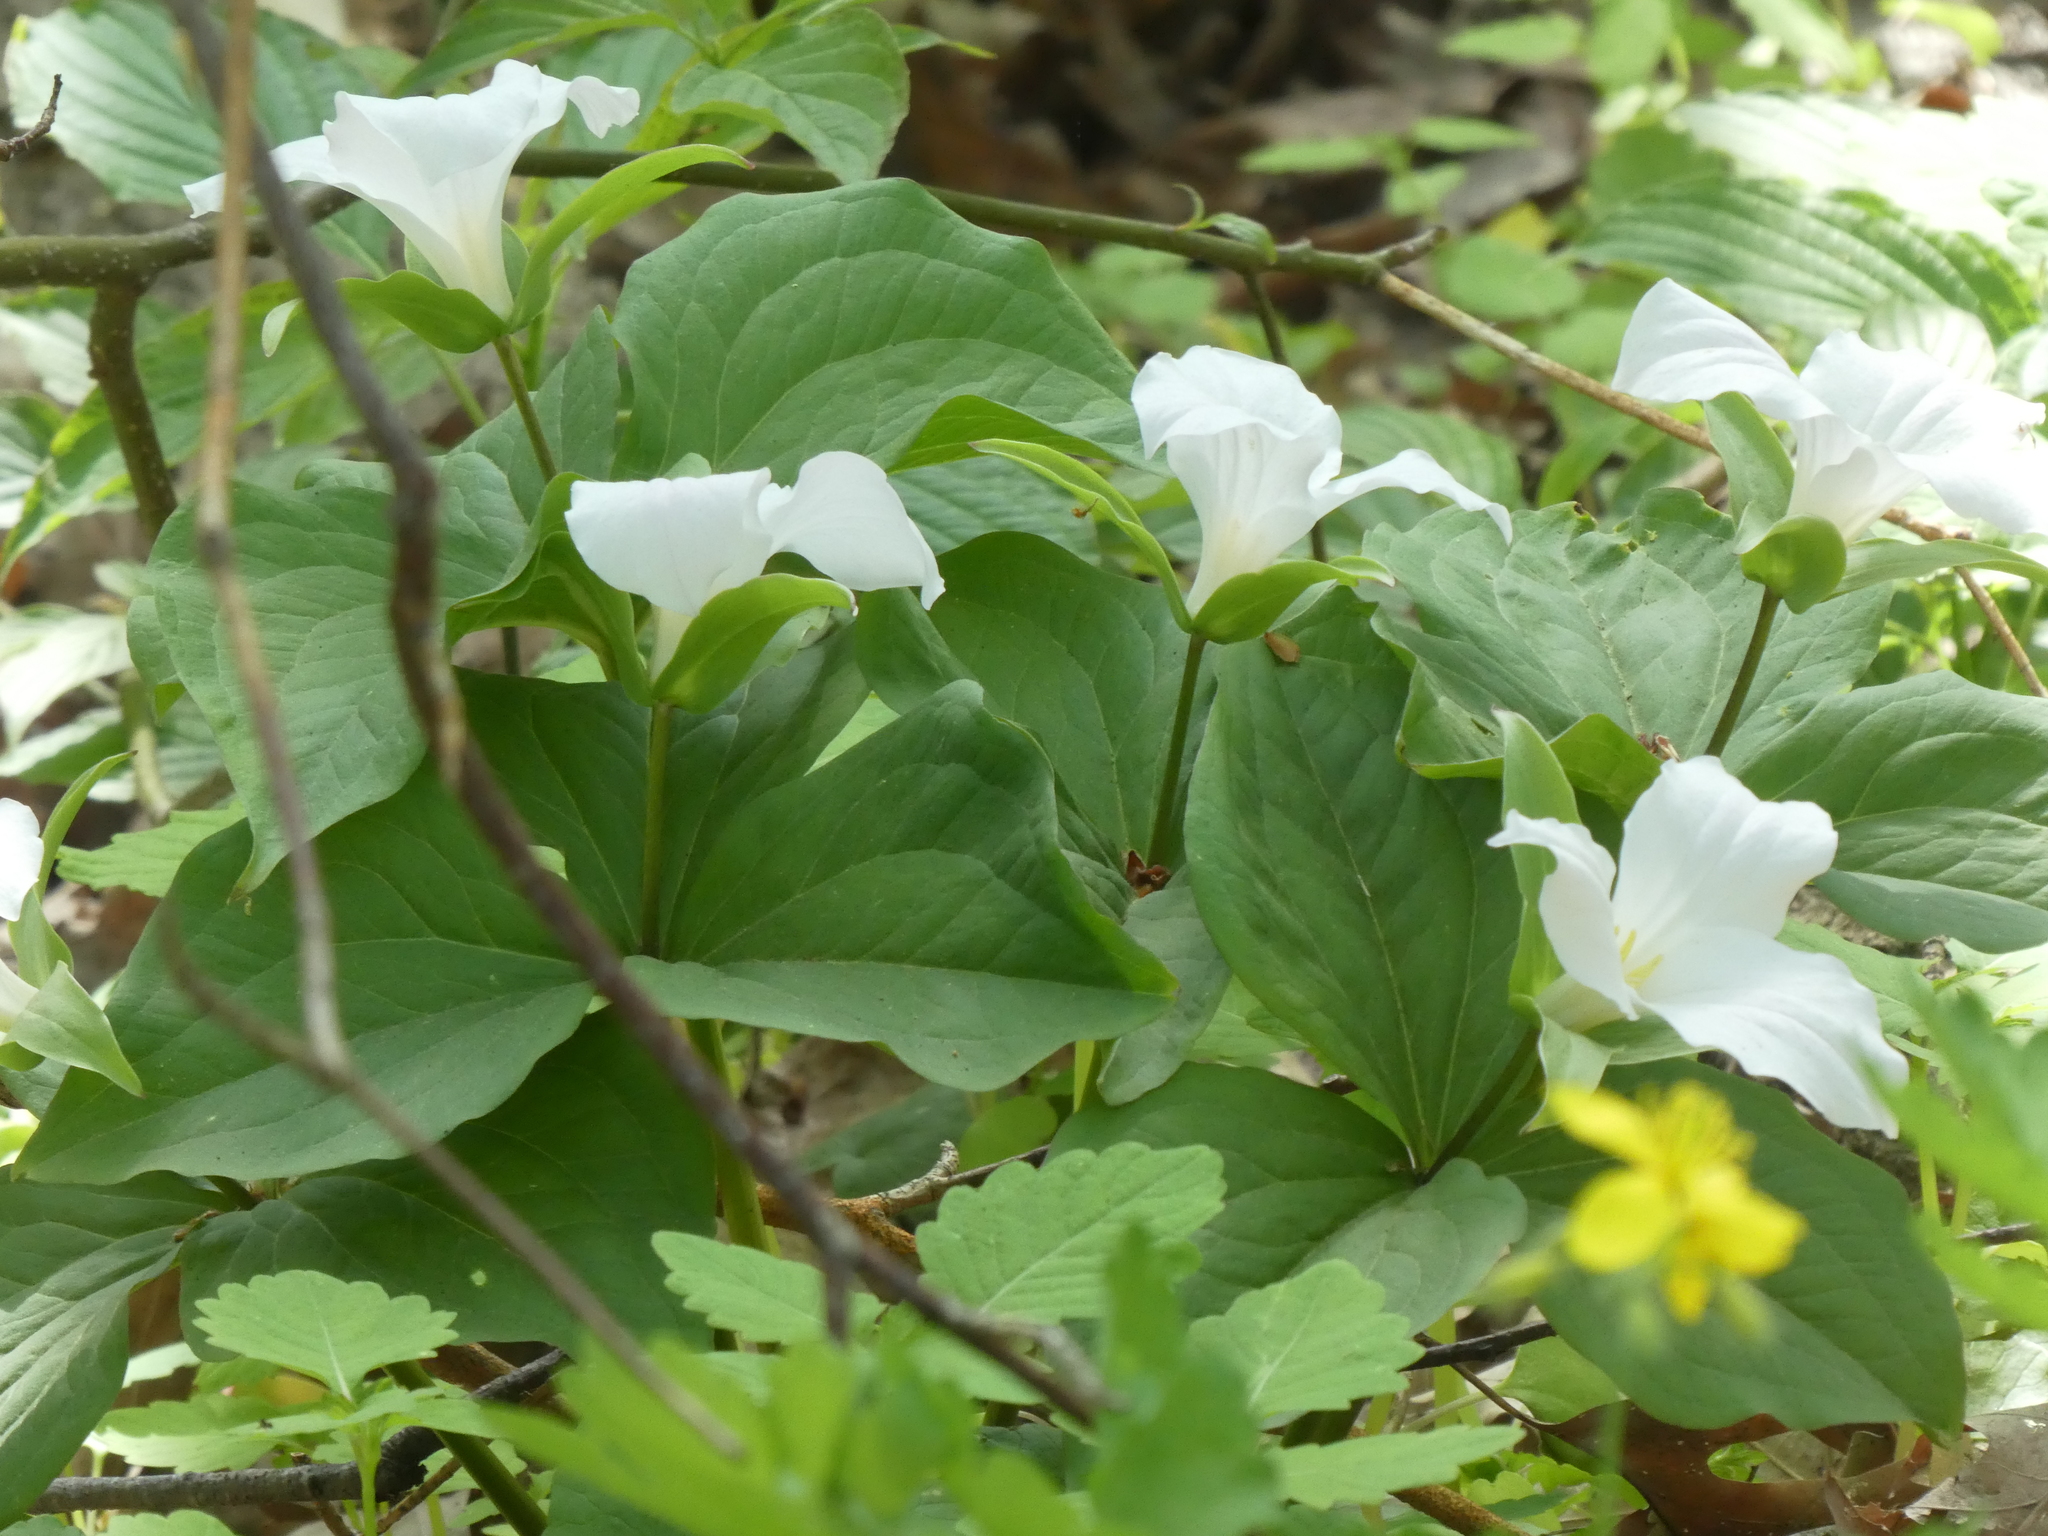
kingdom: Plantae
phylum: Tracheophyta
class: Liliopsida
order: Liliales
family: Melanthiaceae
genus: Trillium
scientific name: Trillium grandiflorum
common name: Great white trillium
